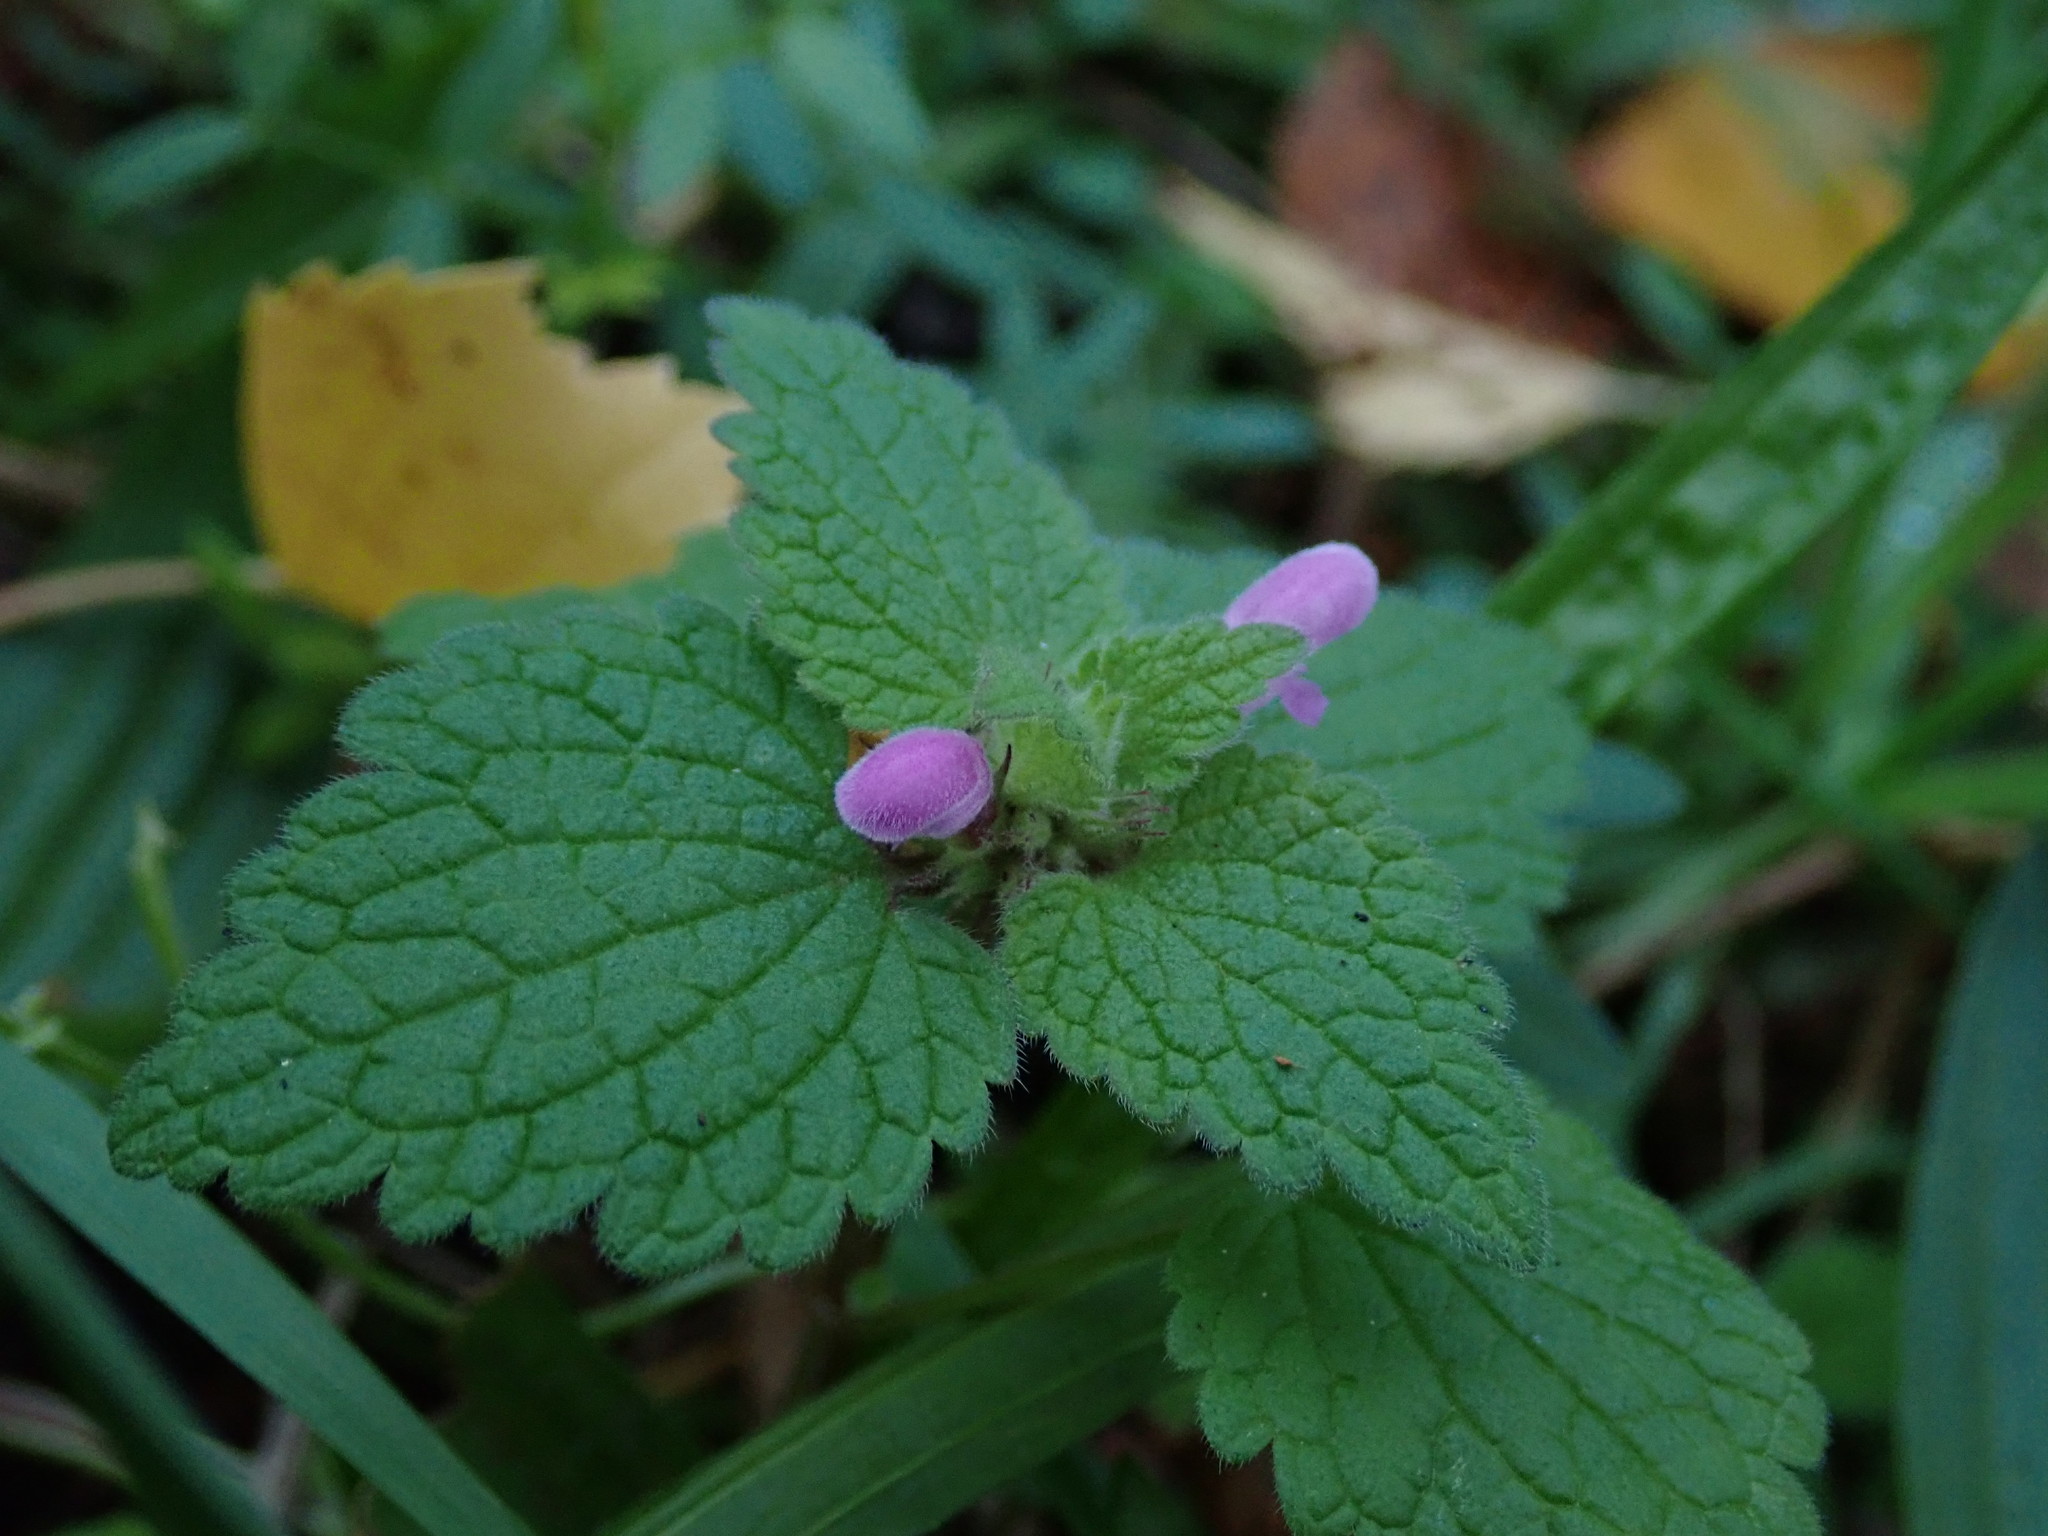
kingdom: Plantae
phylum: Tracheophyta
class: Magnoliopsida
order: Lamiales
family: Lamiaceae
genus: Lamium
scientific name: Lamium purpureum
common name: Red dead-nettle
